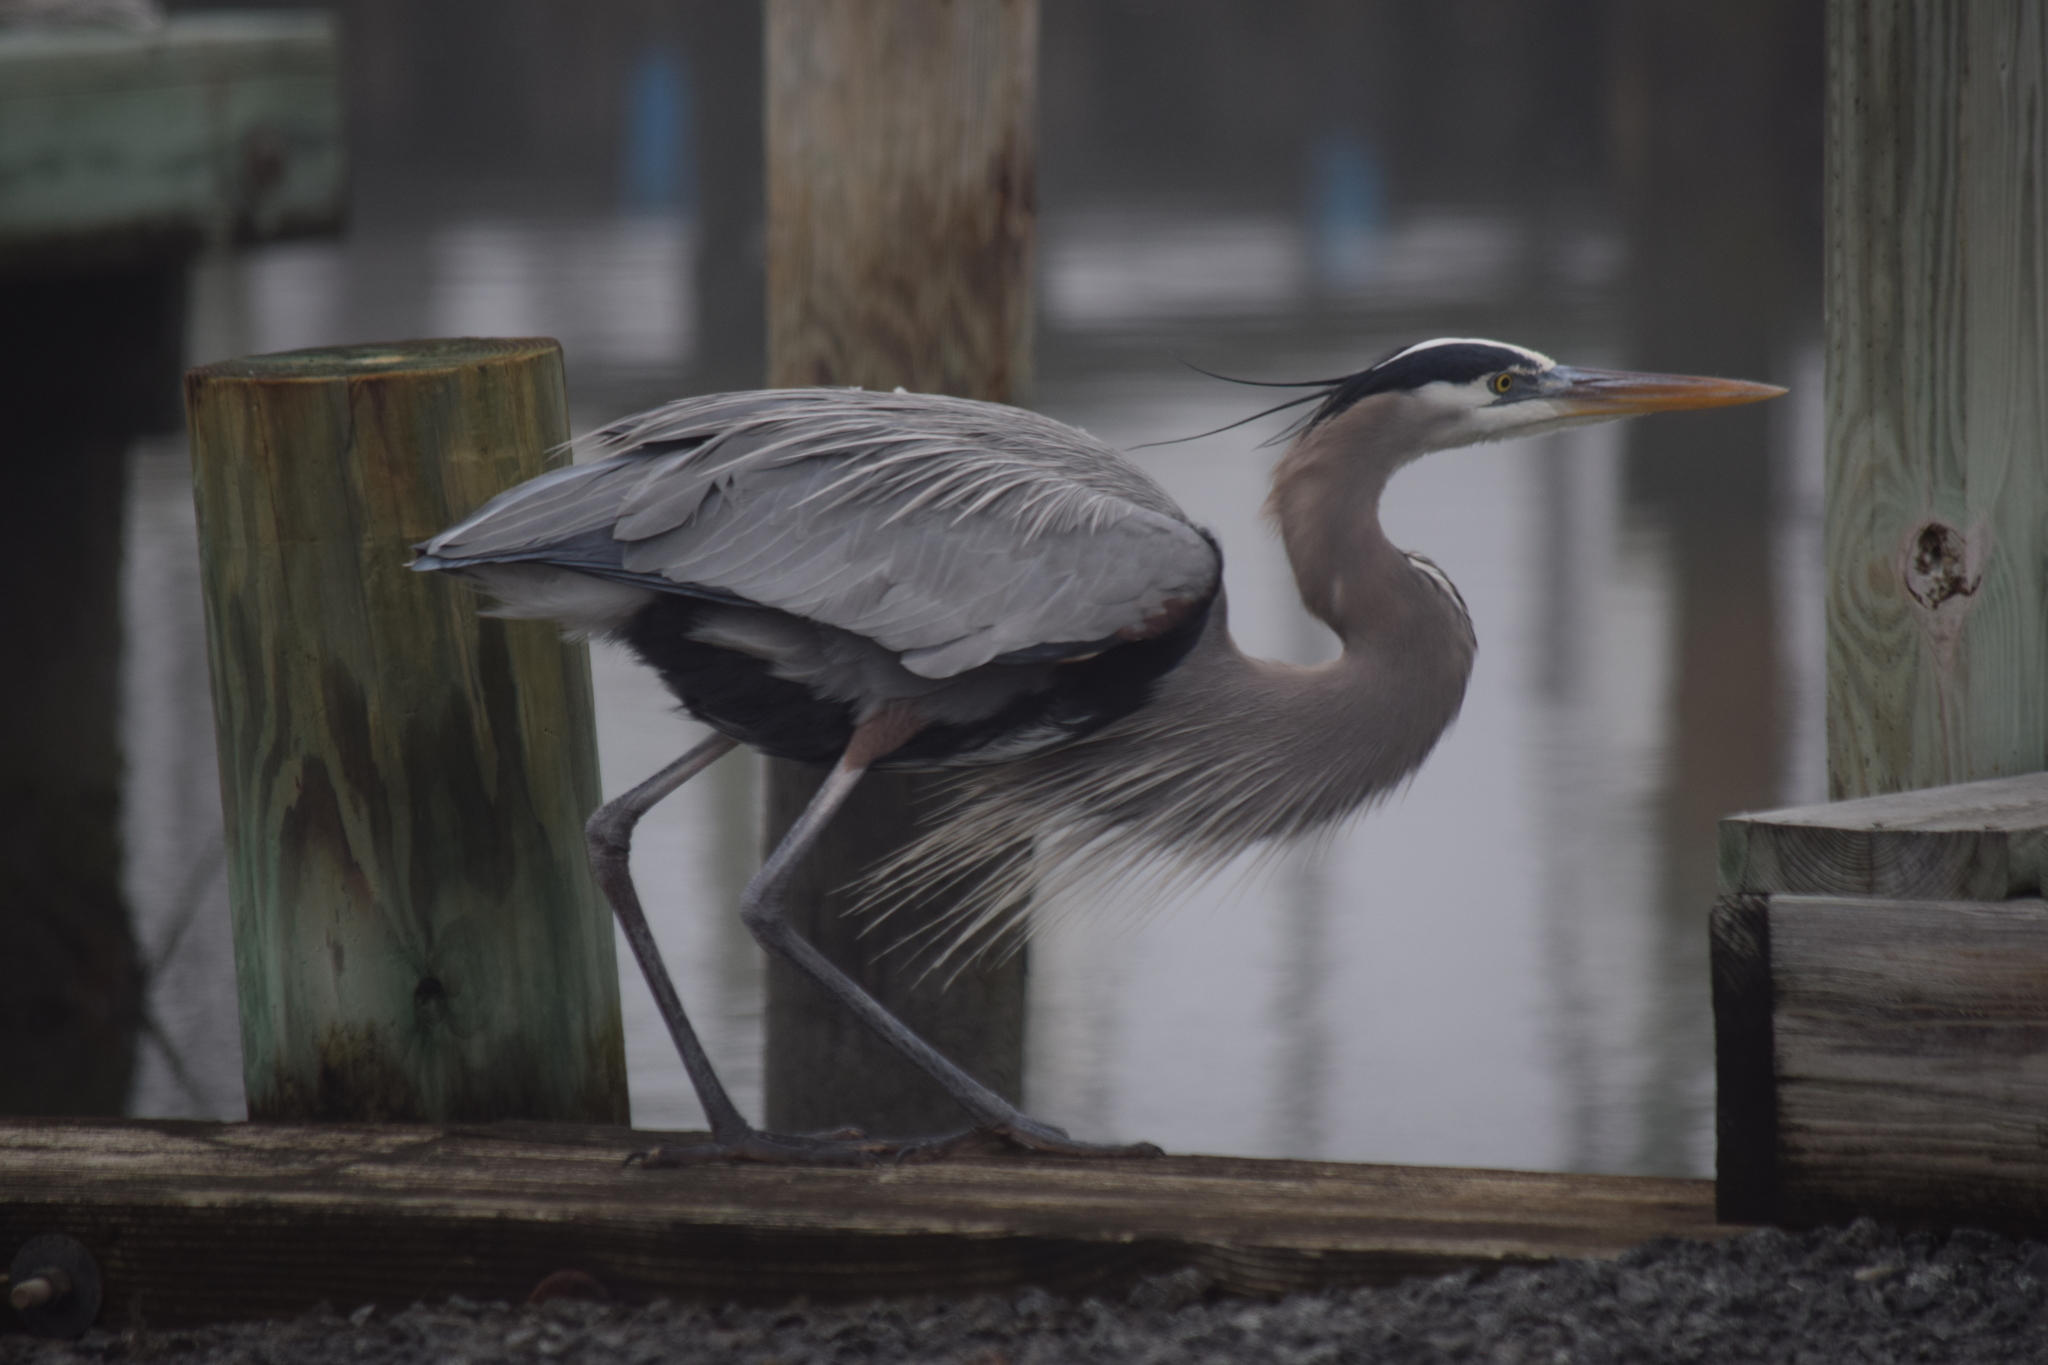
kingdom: Animalia
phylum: Chordata
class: Aves
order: Pelecaniformes
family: Ardeidae
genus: Ardea
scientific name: Ardea herodias
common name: Great blue heron
